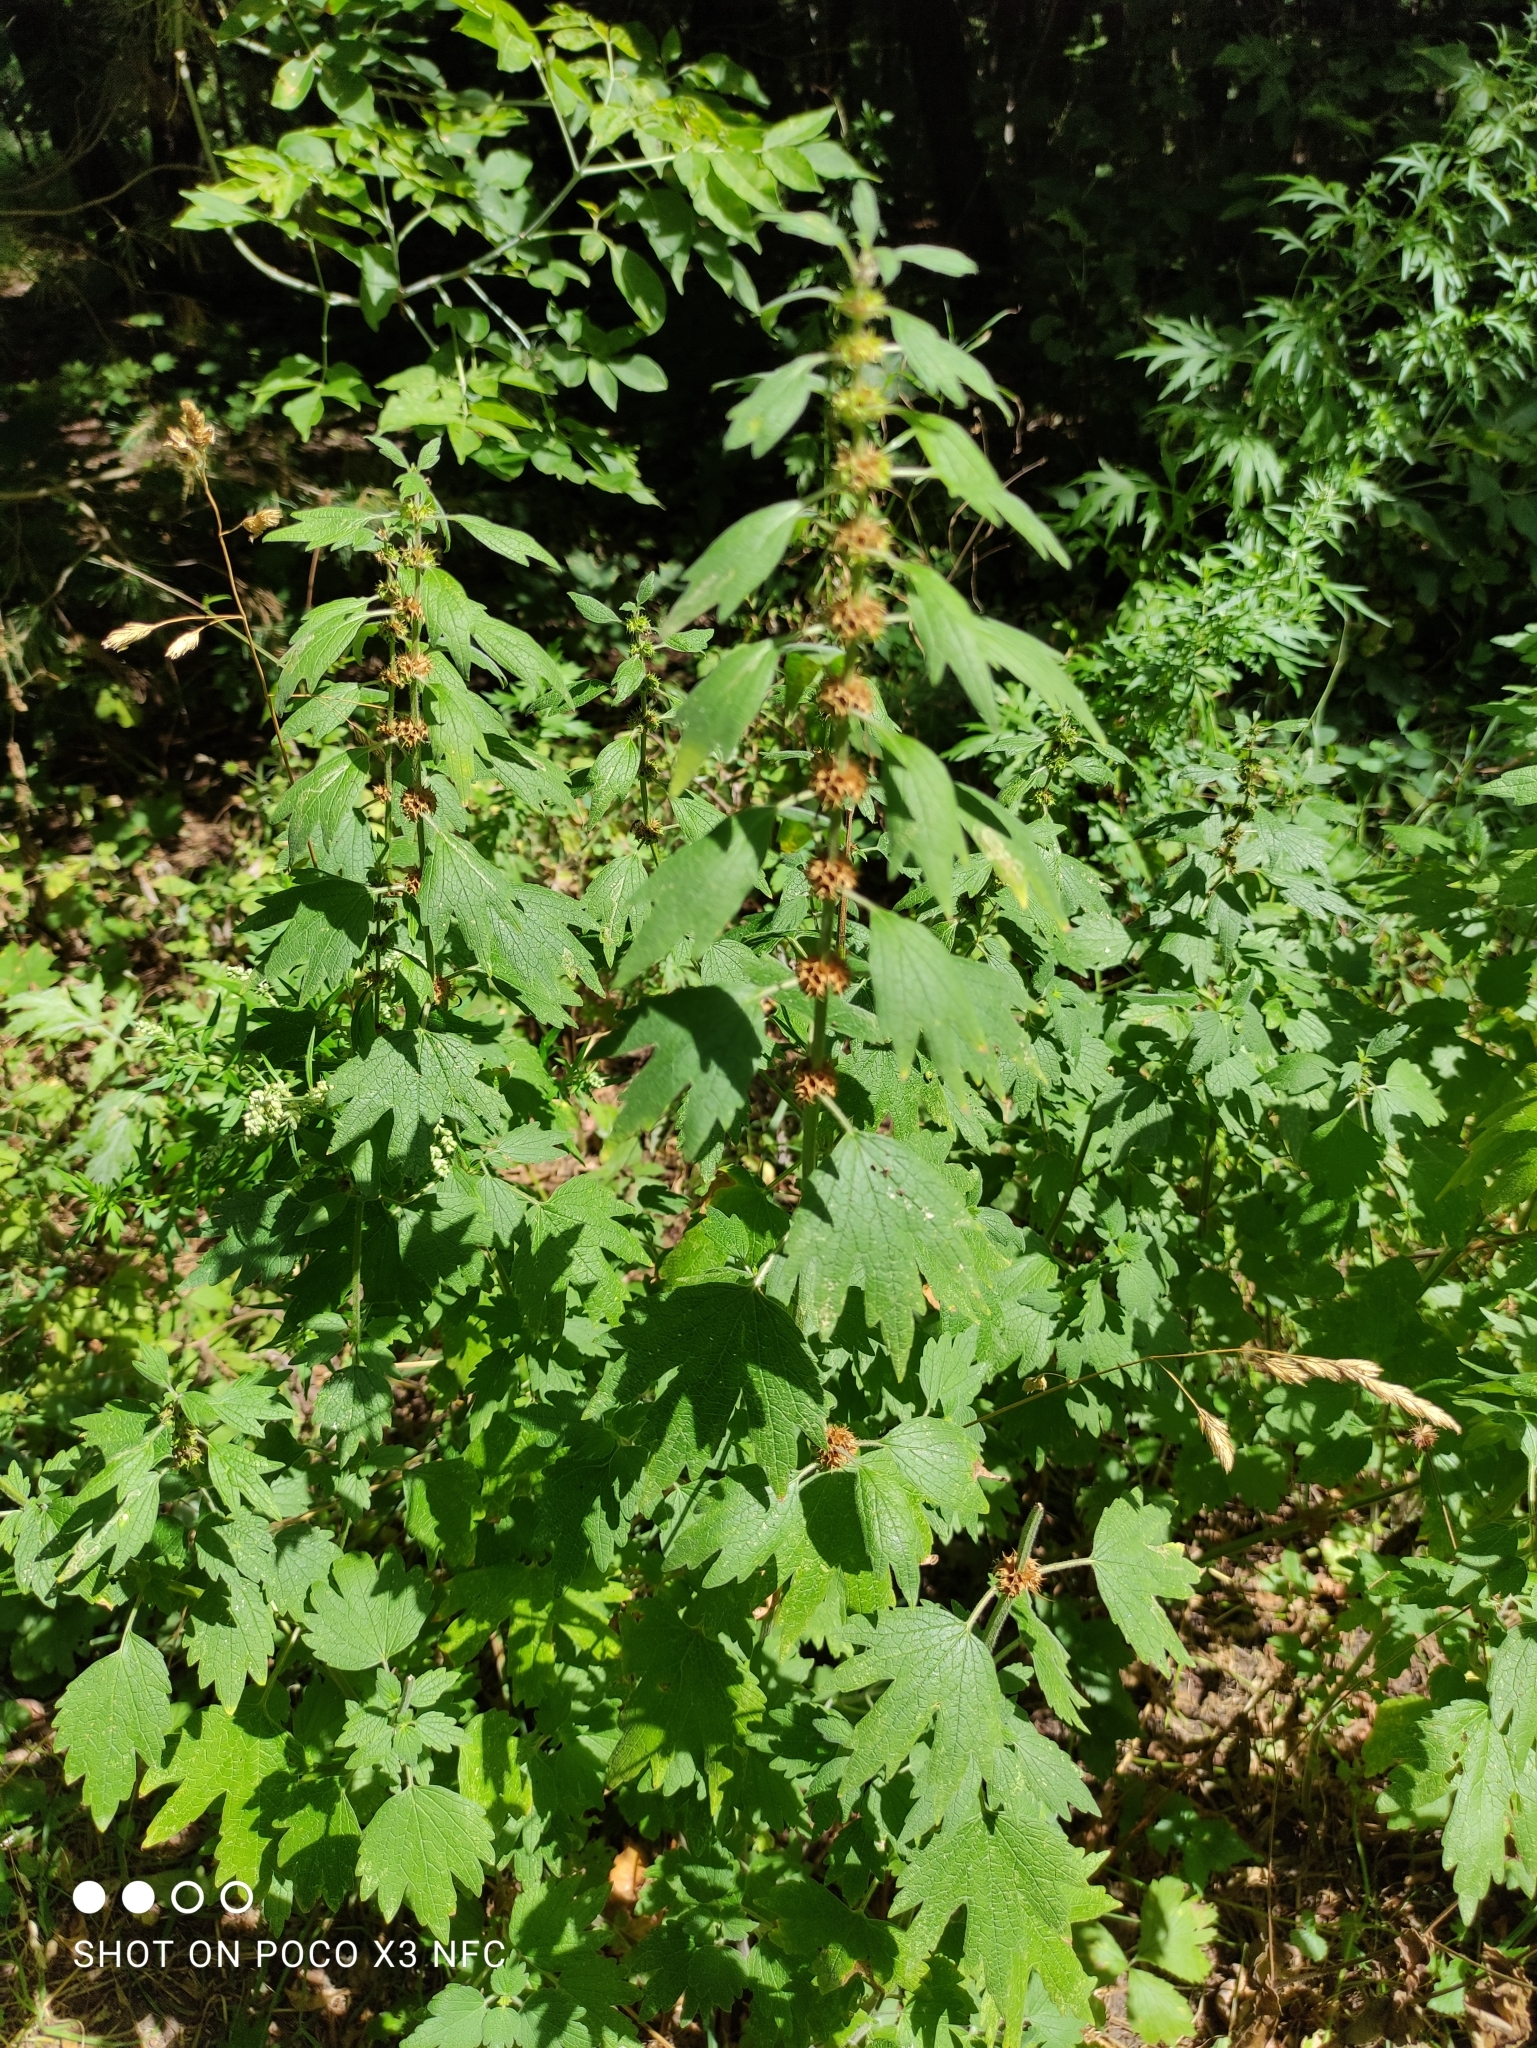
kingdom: Plantae
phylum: Tracheophyta
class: Magnoliopsida
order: Lamiales
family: Lamiaceae
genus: Leonurus
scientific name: Leonurus quinquelobatus
